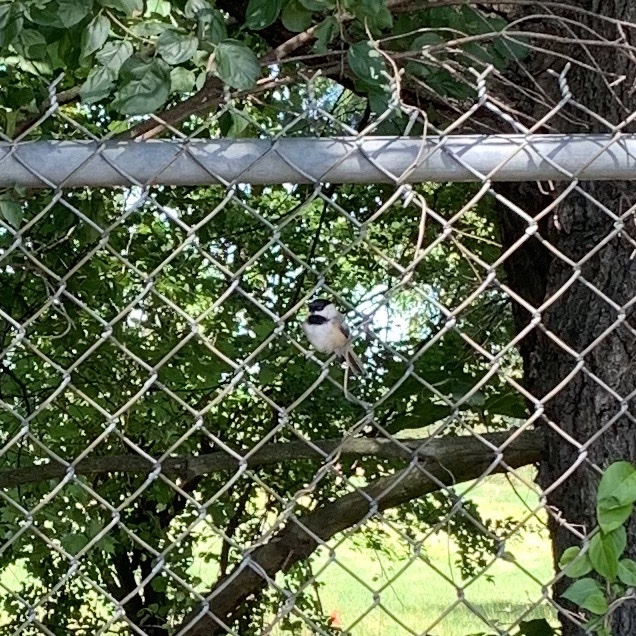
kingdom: Animalia
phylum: Chordata
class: Aves
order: Passeriformes
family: Paridae
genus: Poecile
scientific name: Poecile atricapillus
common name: Black-capped chickadee
